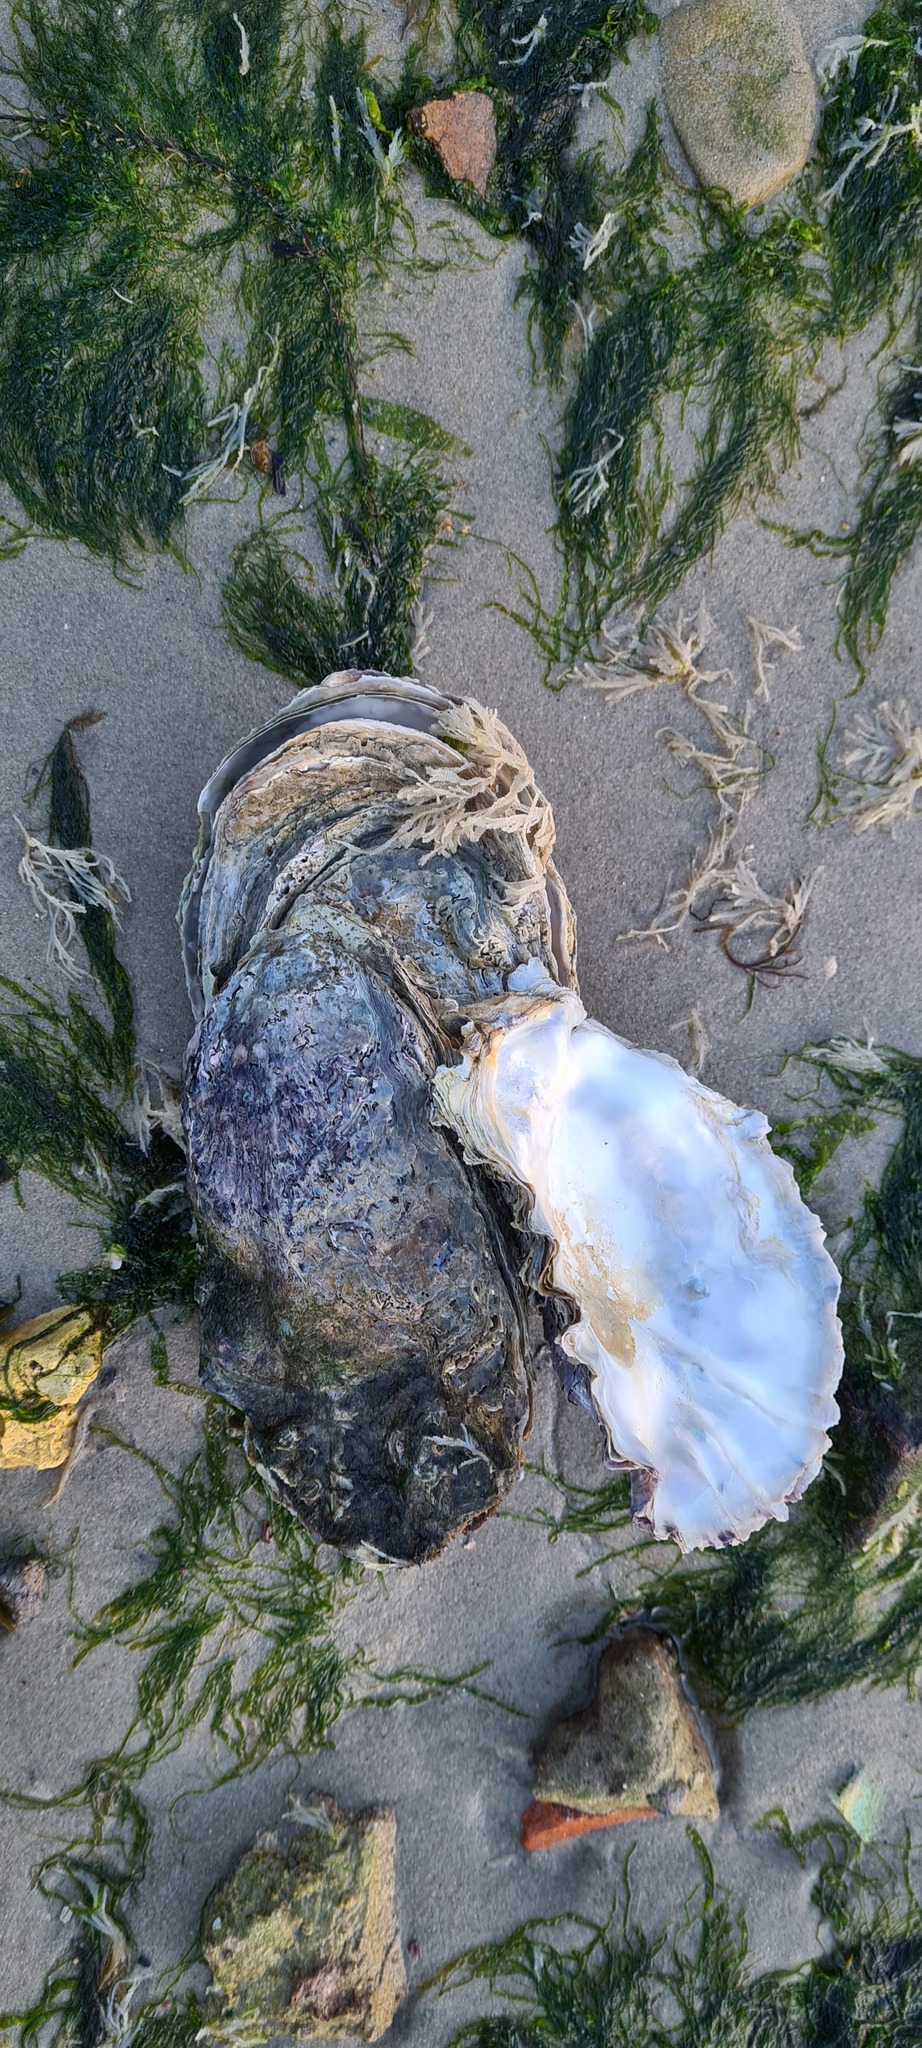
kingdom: Animalia
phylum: Mollusca
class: Bivalvia
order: Ostreida
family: Ostreidae
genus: Magallana
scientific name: Magallana gigas
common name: Pacific oyster
